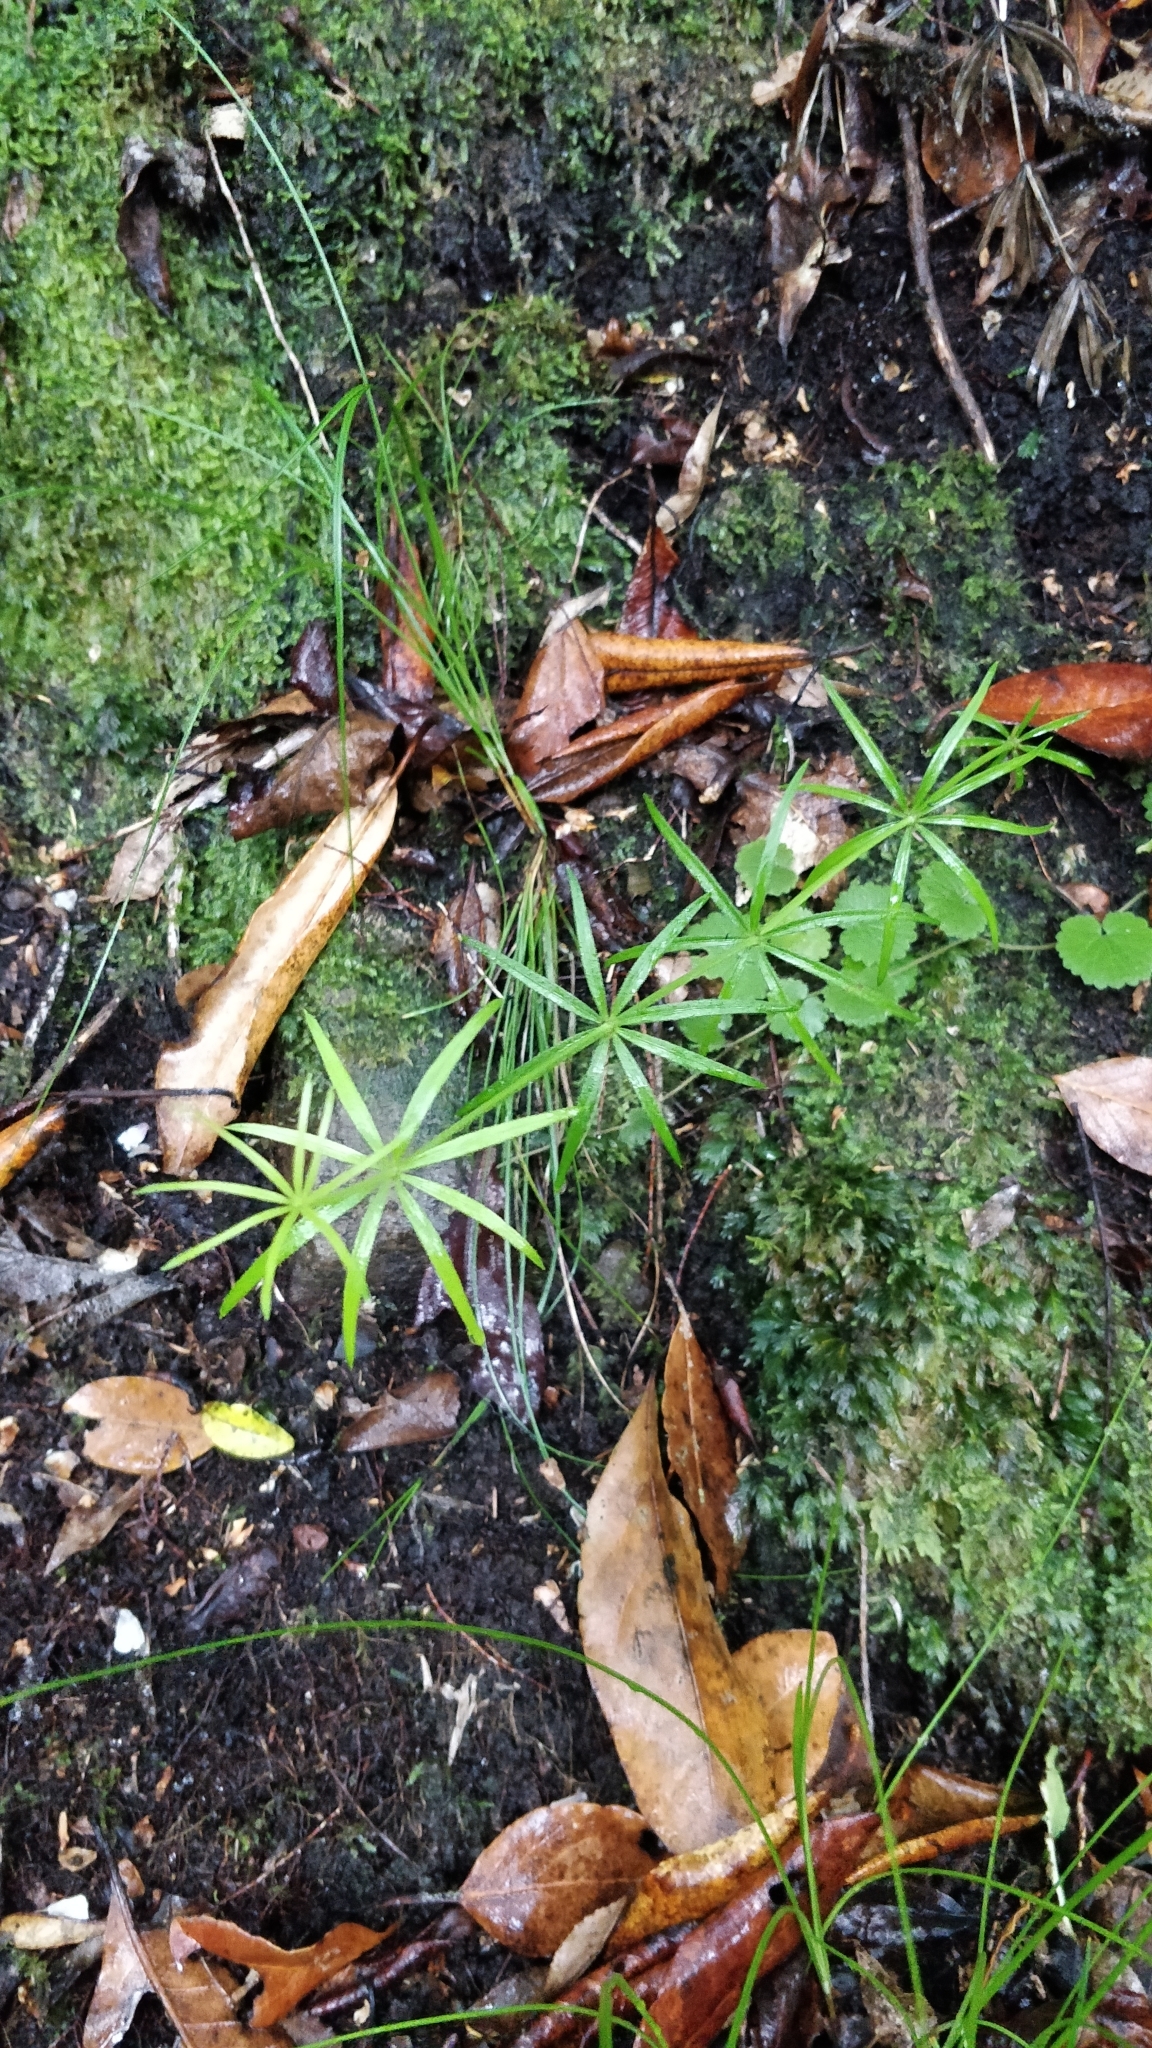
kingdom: Plantae
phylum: Tracheophyta
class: Magnoliopsida
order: Gentianales
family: Rubiaceae
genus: Galium
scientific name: Galium aparine
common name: Cleavers
